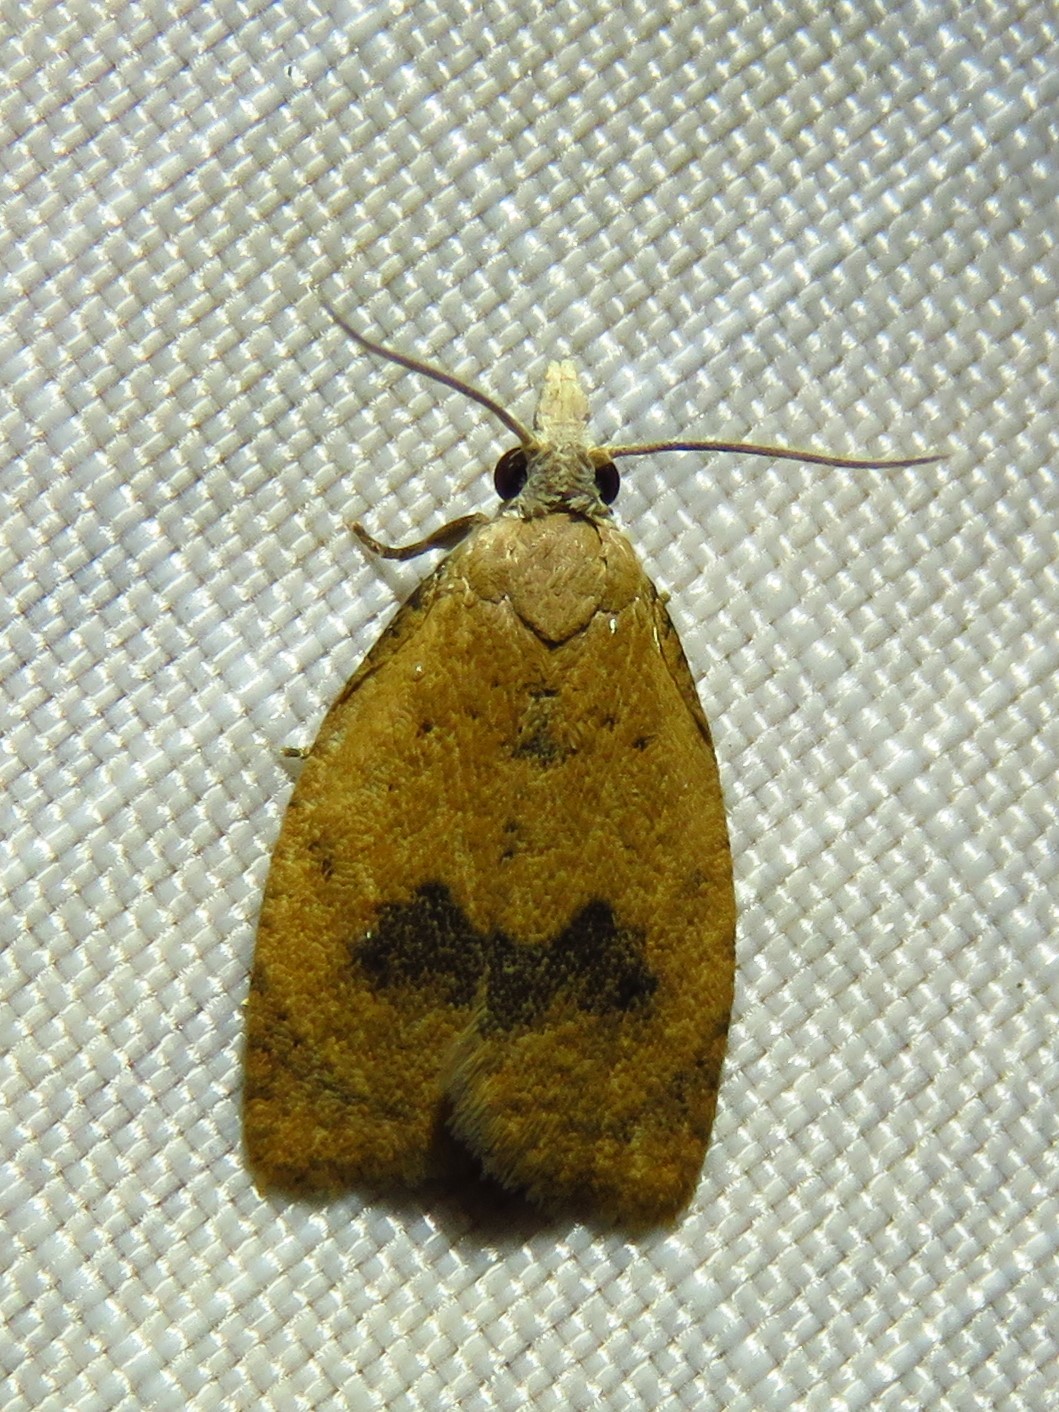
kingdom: Animalia
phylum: Arthropoda
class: Insecta
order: Lepidoptera
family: Tortricidae
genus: Sparganothoides
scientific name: Sparganothoides lentiginosana
